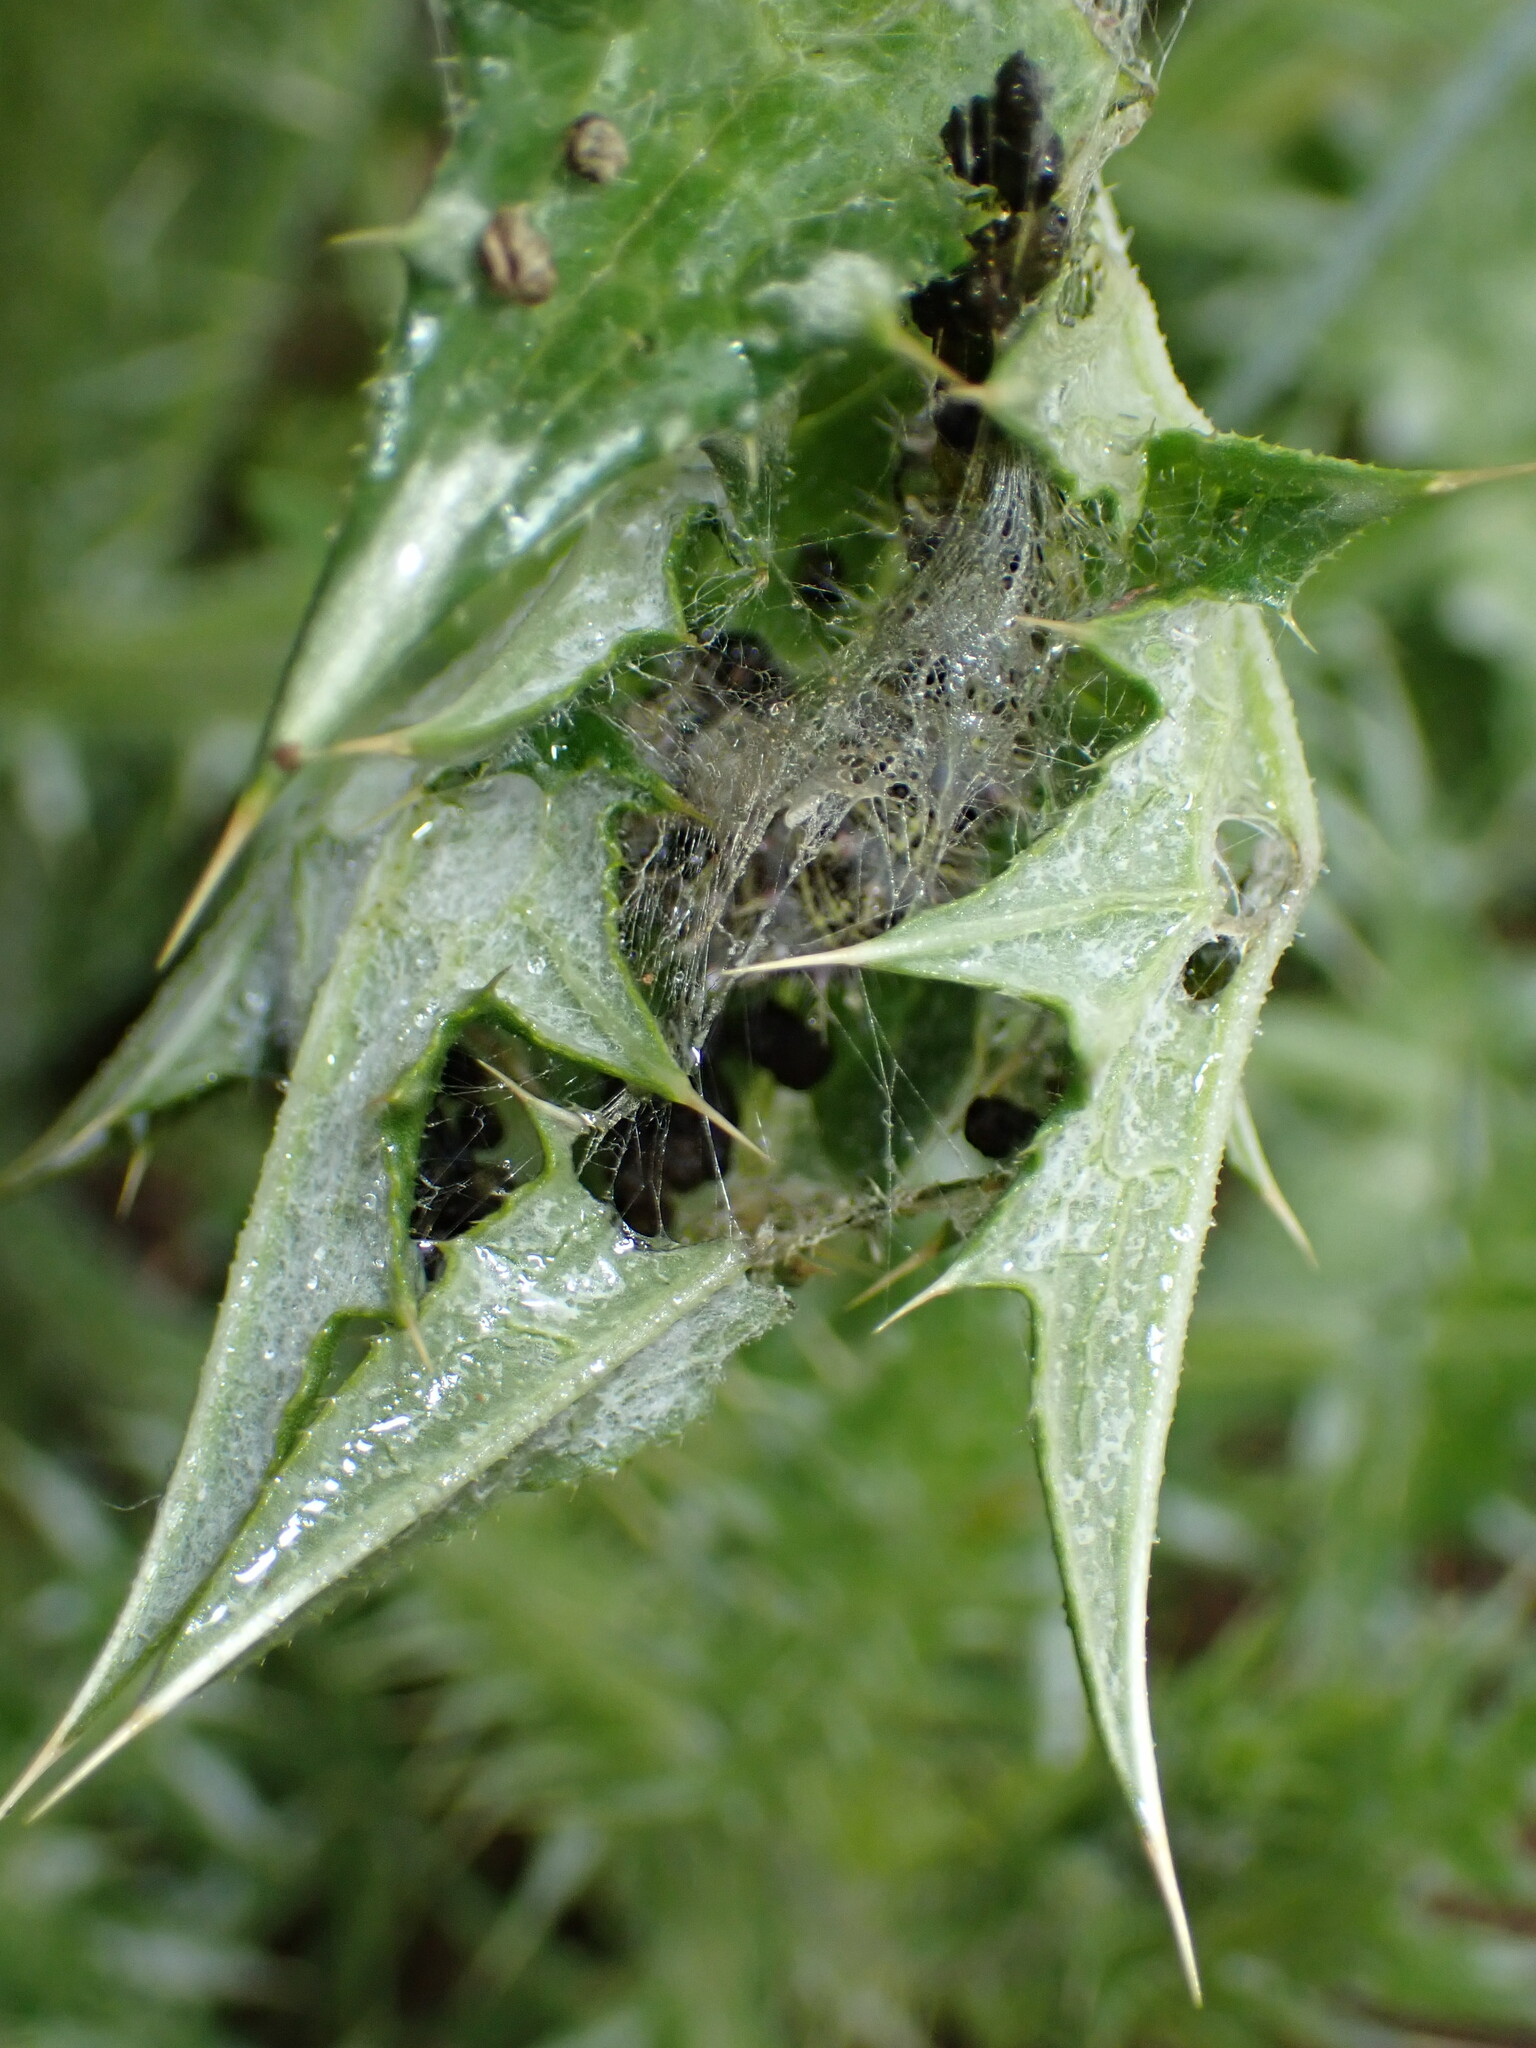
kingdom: Animalia
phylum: Arthropoda
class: Insecta
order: Lepidoptera
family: Nymphalidae
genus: Vanessa
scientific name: Vanessa cardui
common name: Painted lady
